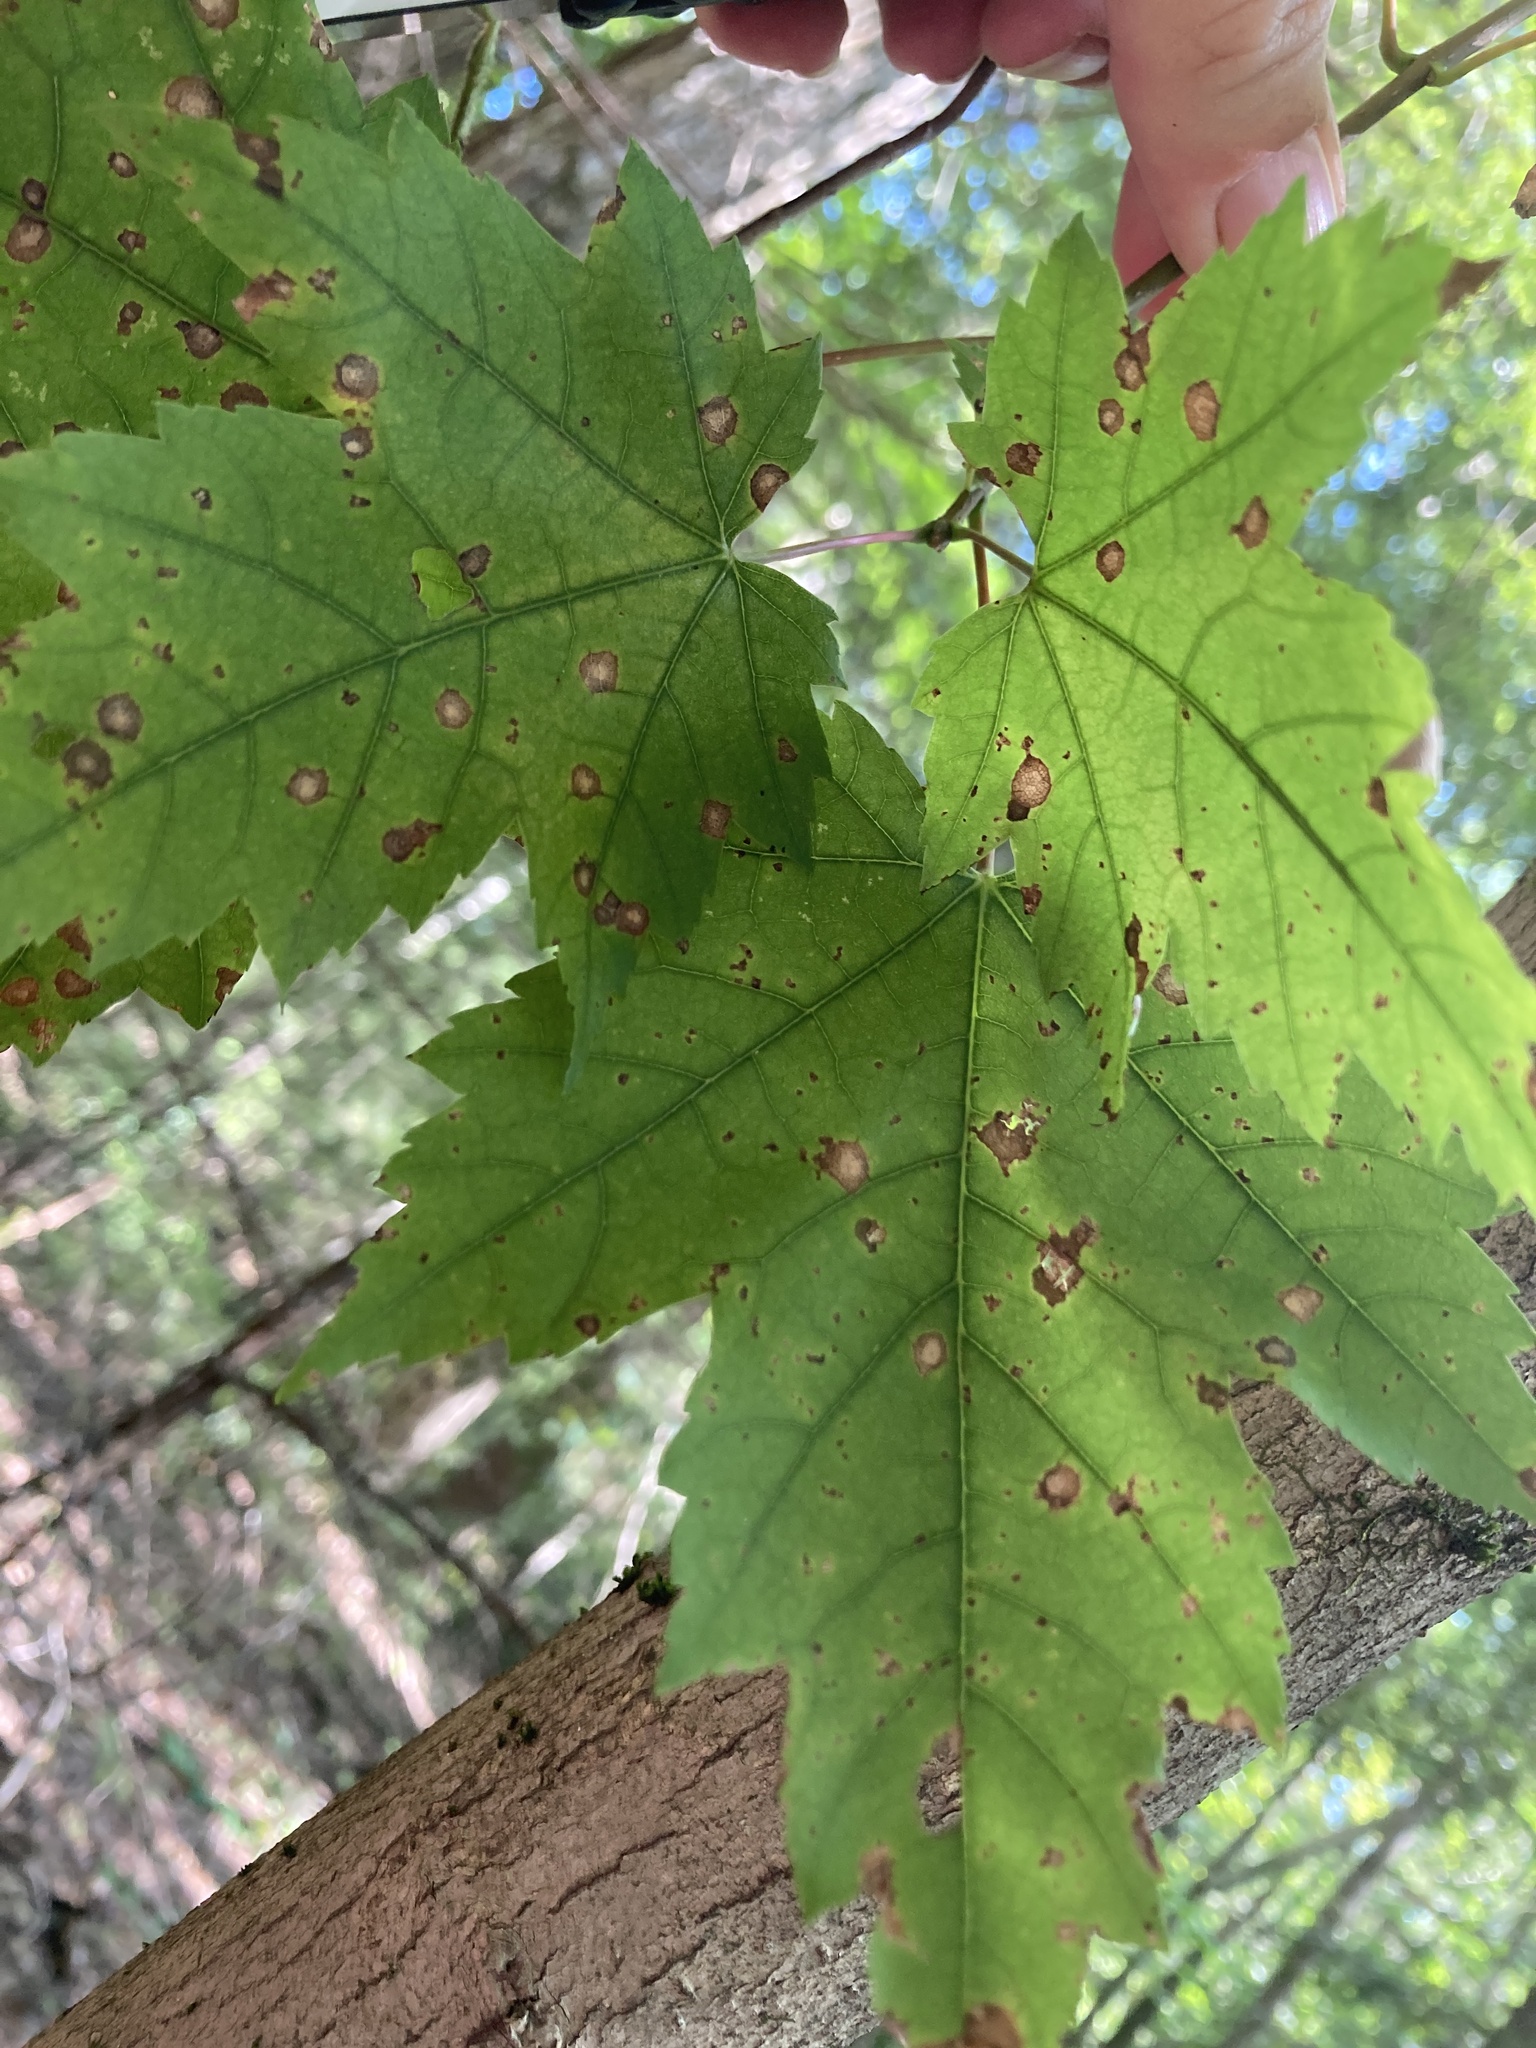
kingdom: Plantae
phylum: Tracheophyta
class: Magnoliopsida
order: Sapindales
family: Sapindaceae
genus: Acer
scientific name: Acer rubrum
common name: Red maple
